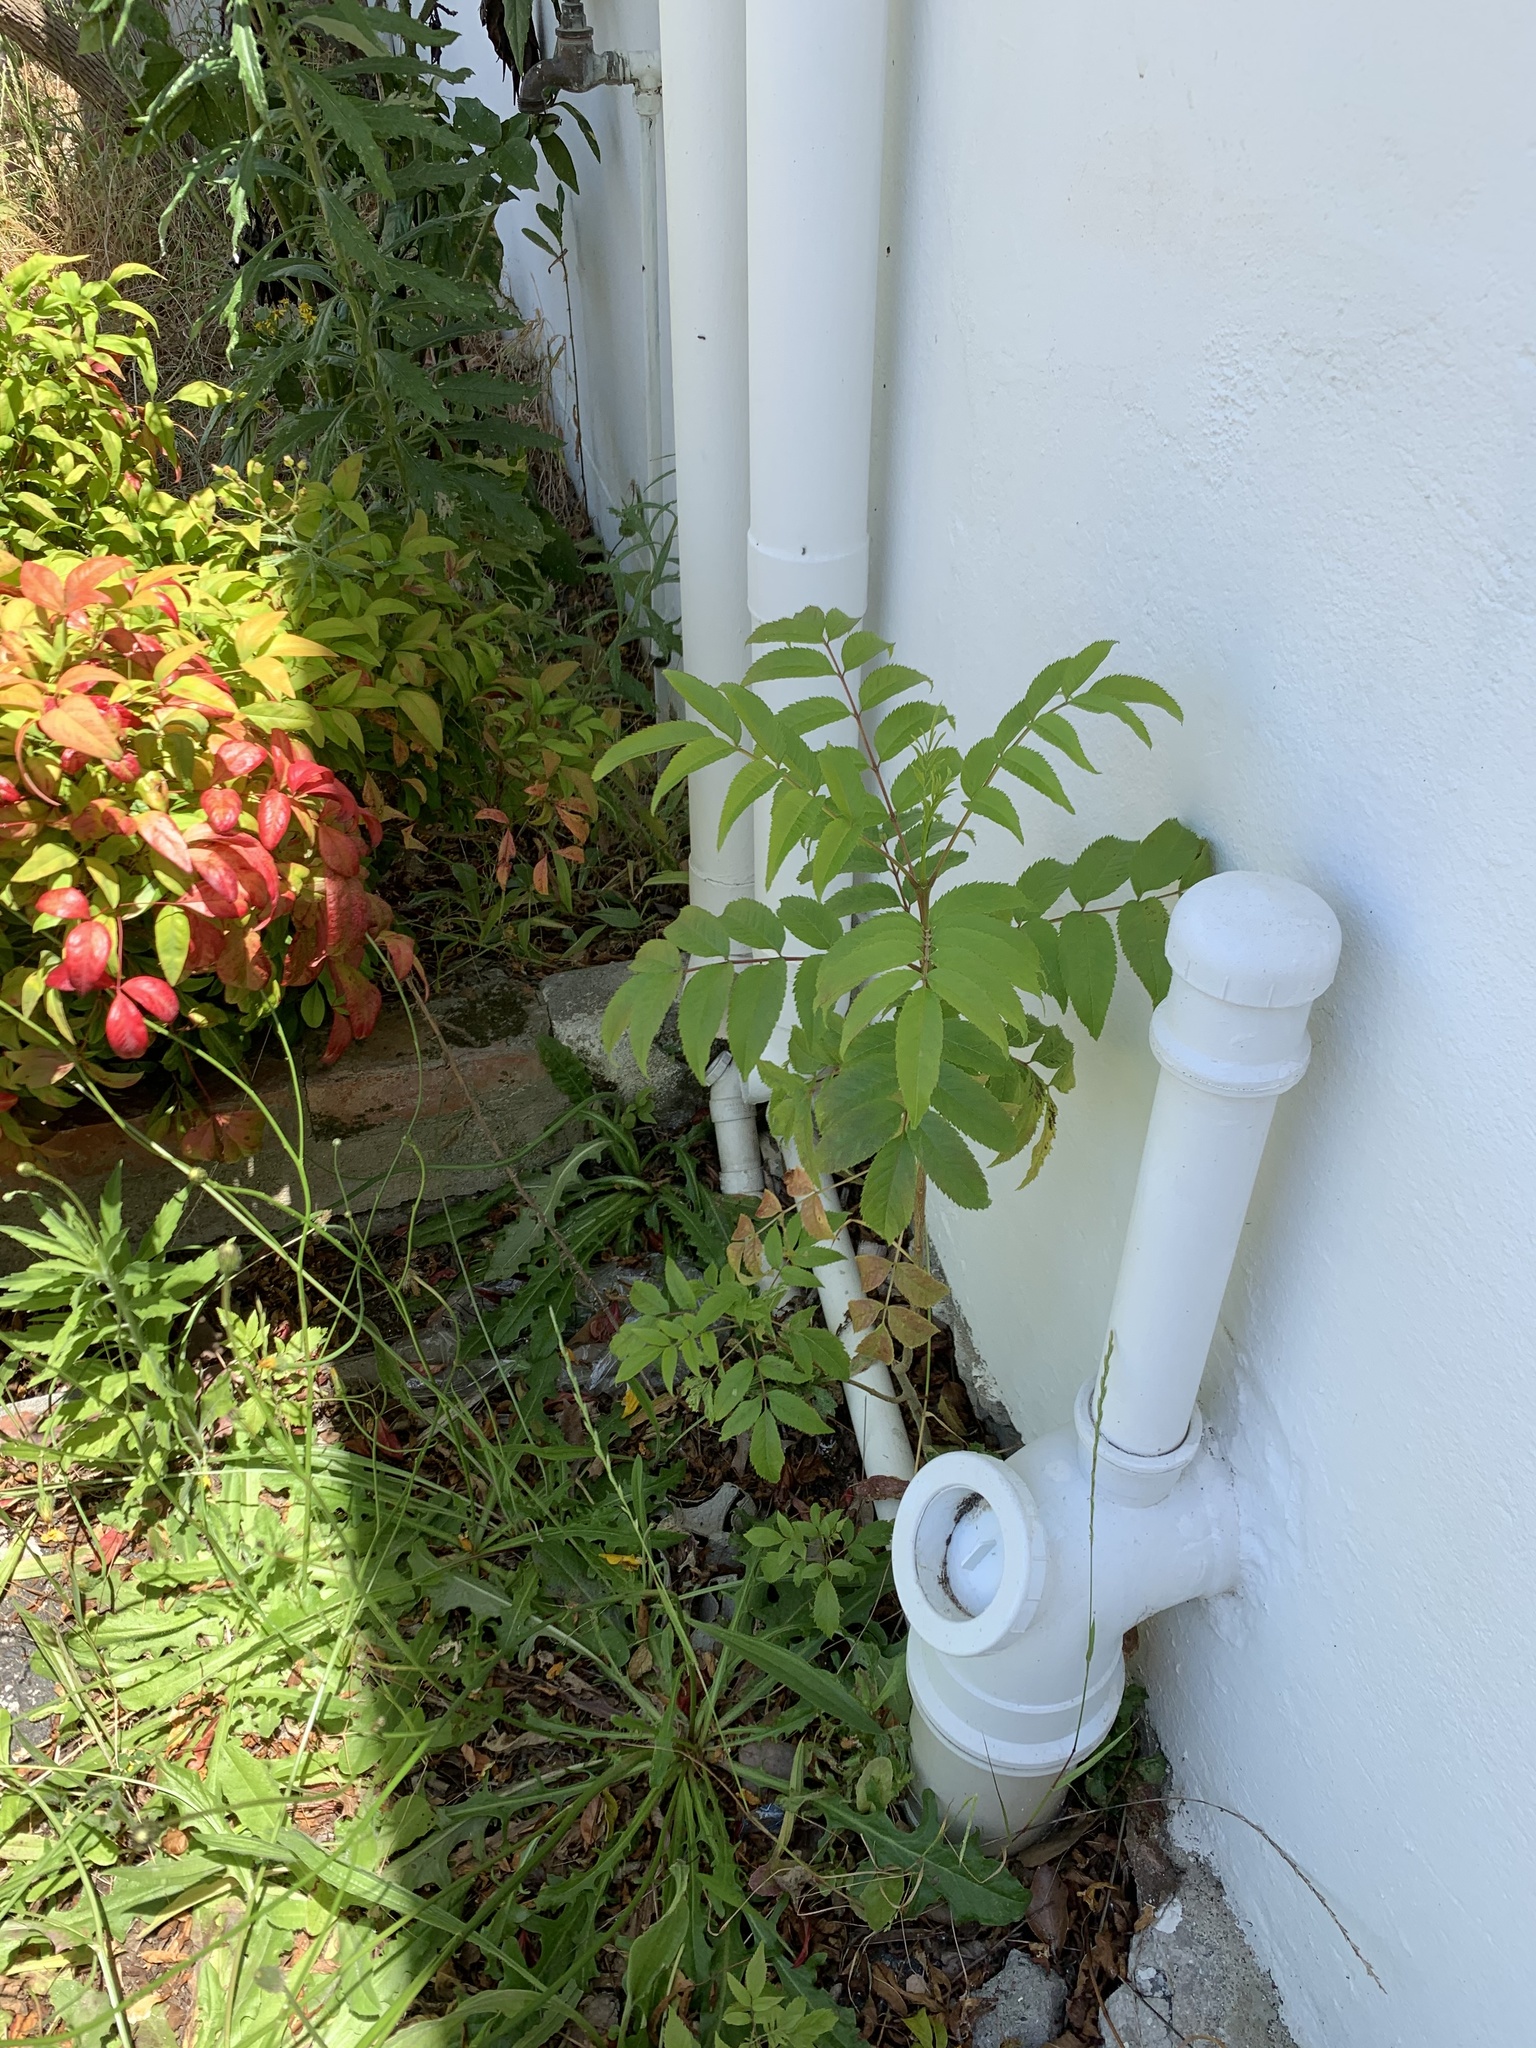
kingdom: Plantae
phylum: Tracheophyta
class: Magnoliopsida
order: Lamiales
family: Bignoniaceae
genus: Tecoma
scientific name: Tecoma stans
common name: Yellow trumpetbush
